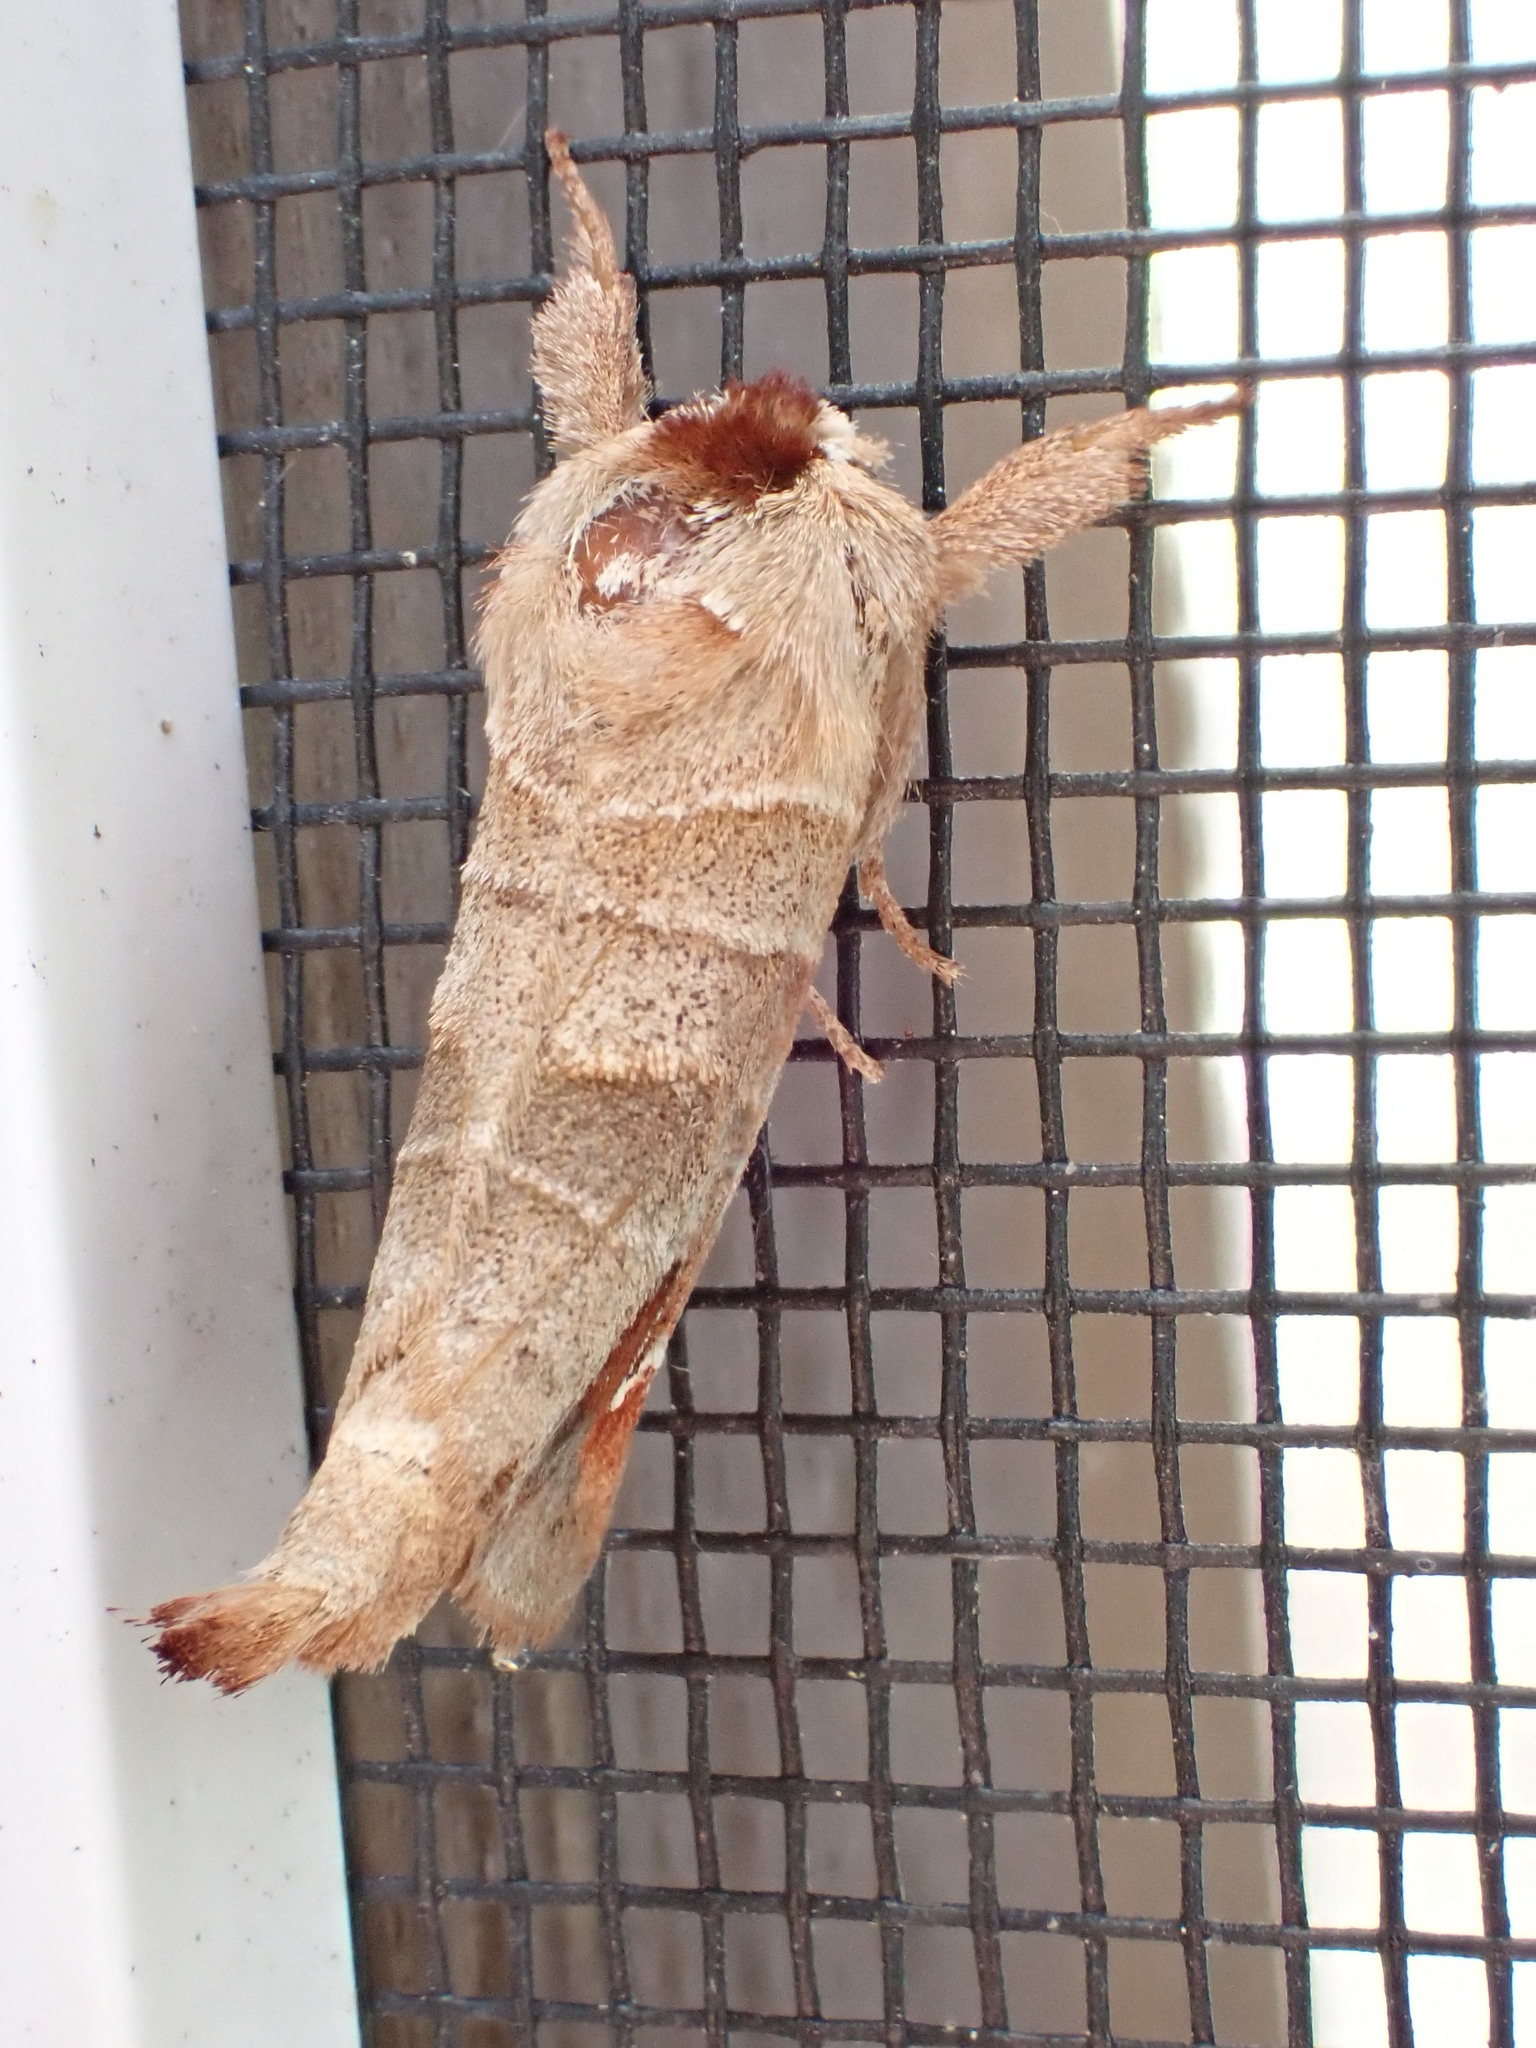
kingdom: Animalia
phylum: Arthropoda
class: Insecta
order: Lepidoptera
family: Notodontidae
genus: Clostera
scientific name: Clostera albosigma
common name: Sigmoid prominent
